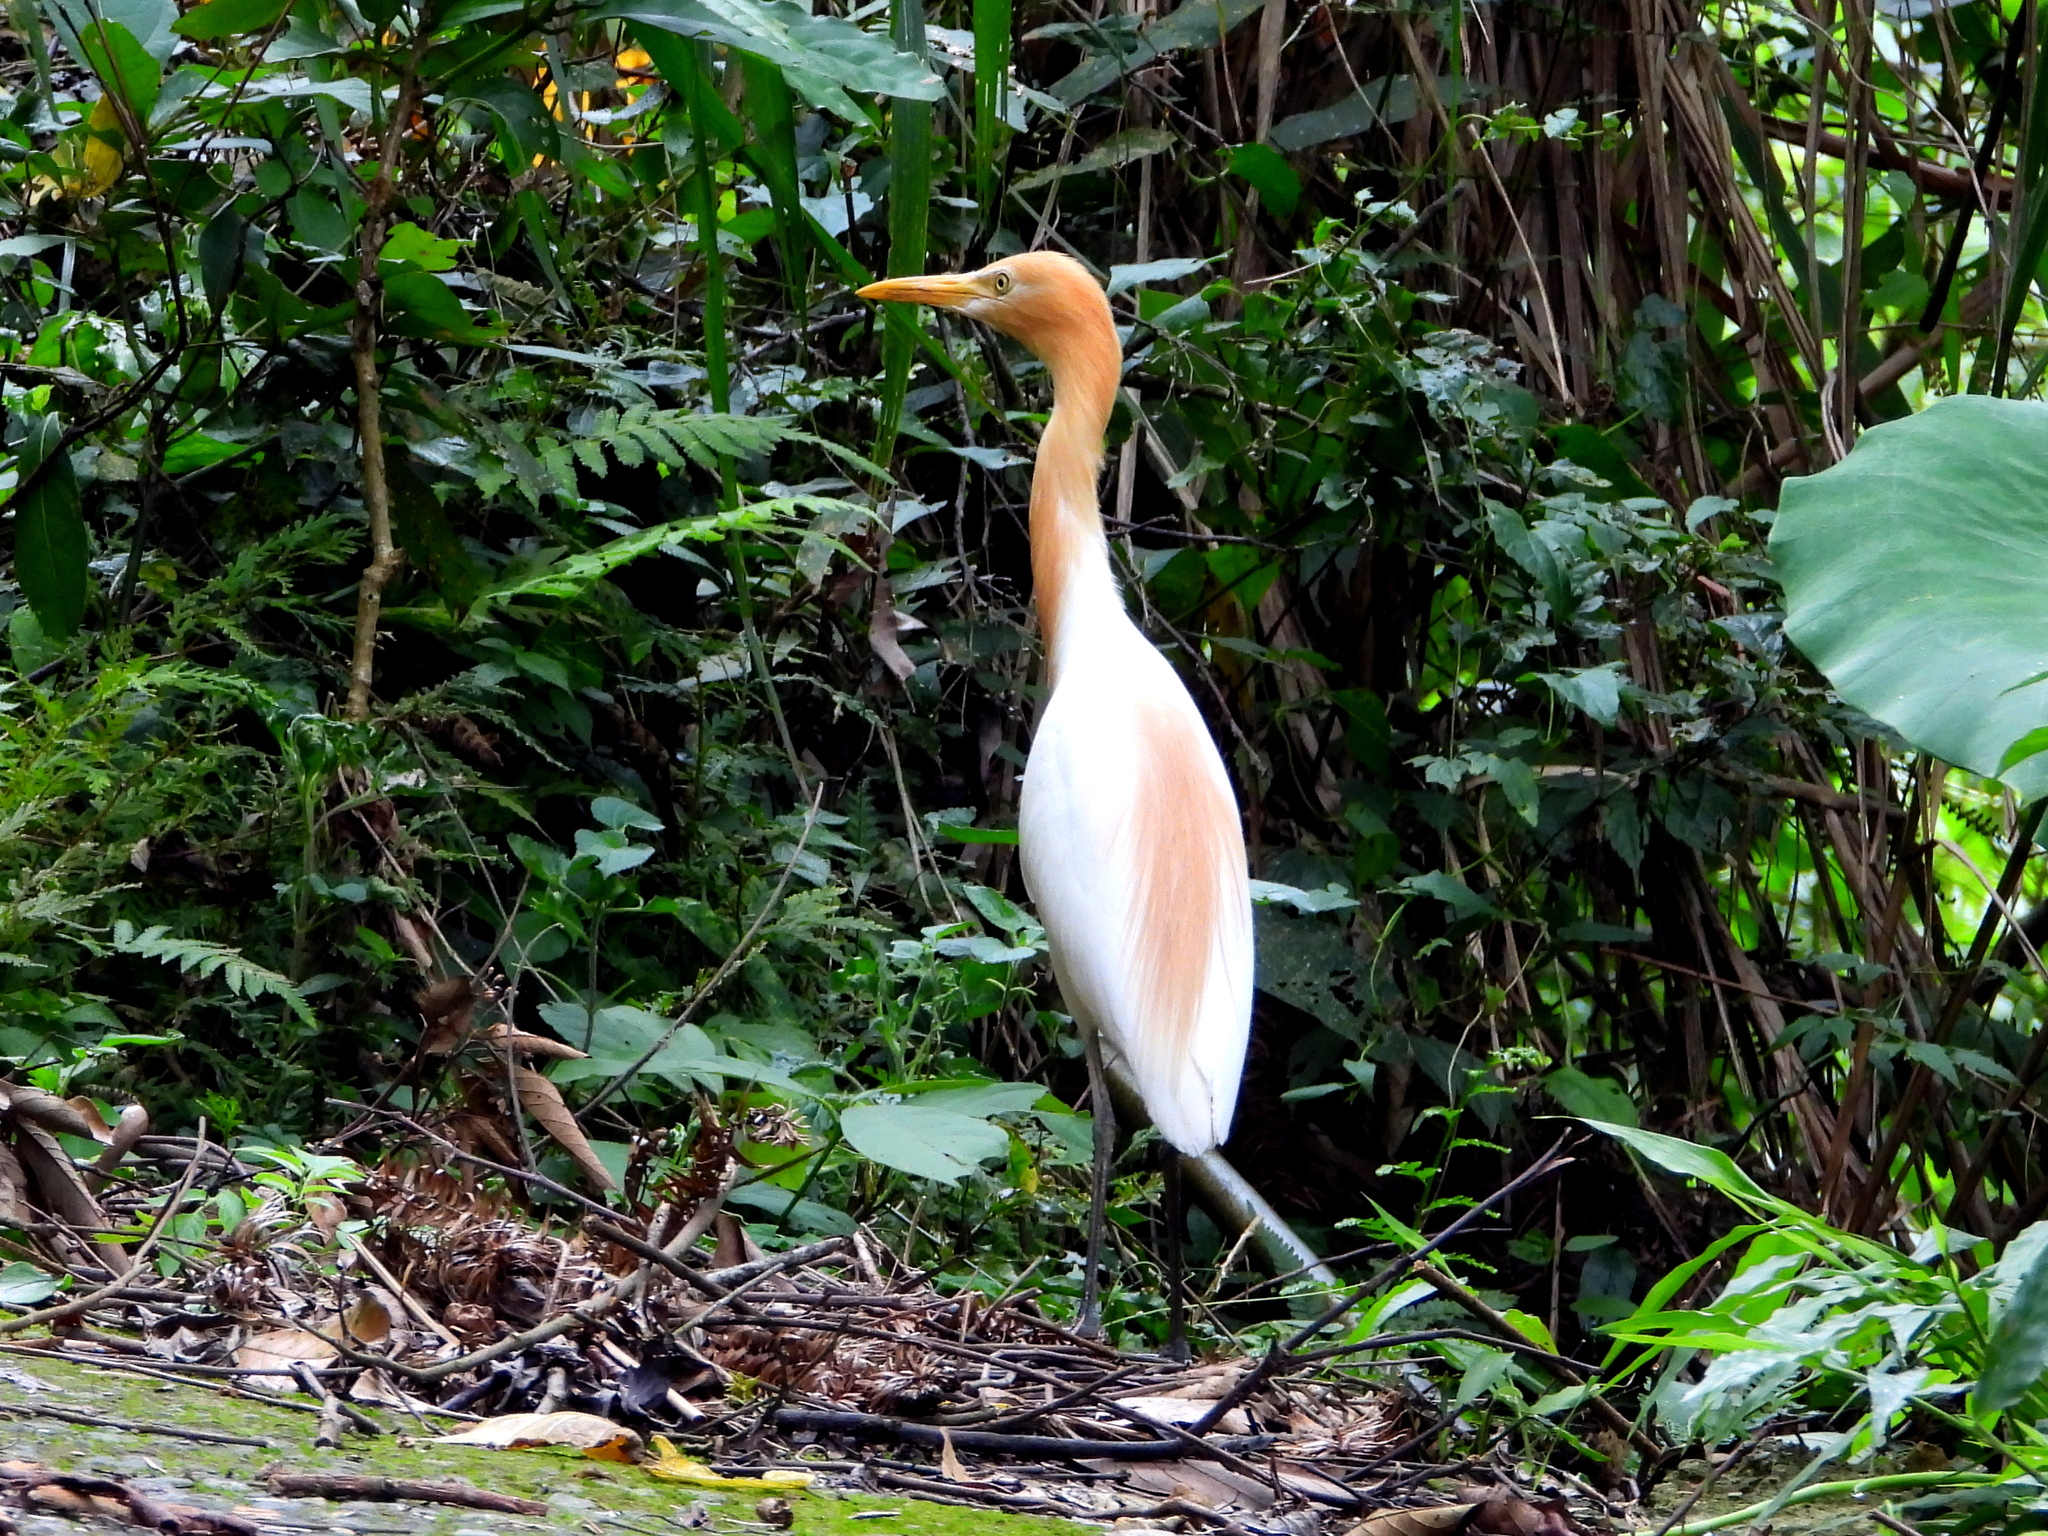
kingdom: Animalia
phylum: Chordata
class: Aves
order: Pelecaniformes
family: Ardeidae
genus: Bubulcus
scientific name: Bubulcus coromandus
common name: Eastern cattle egret
